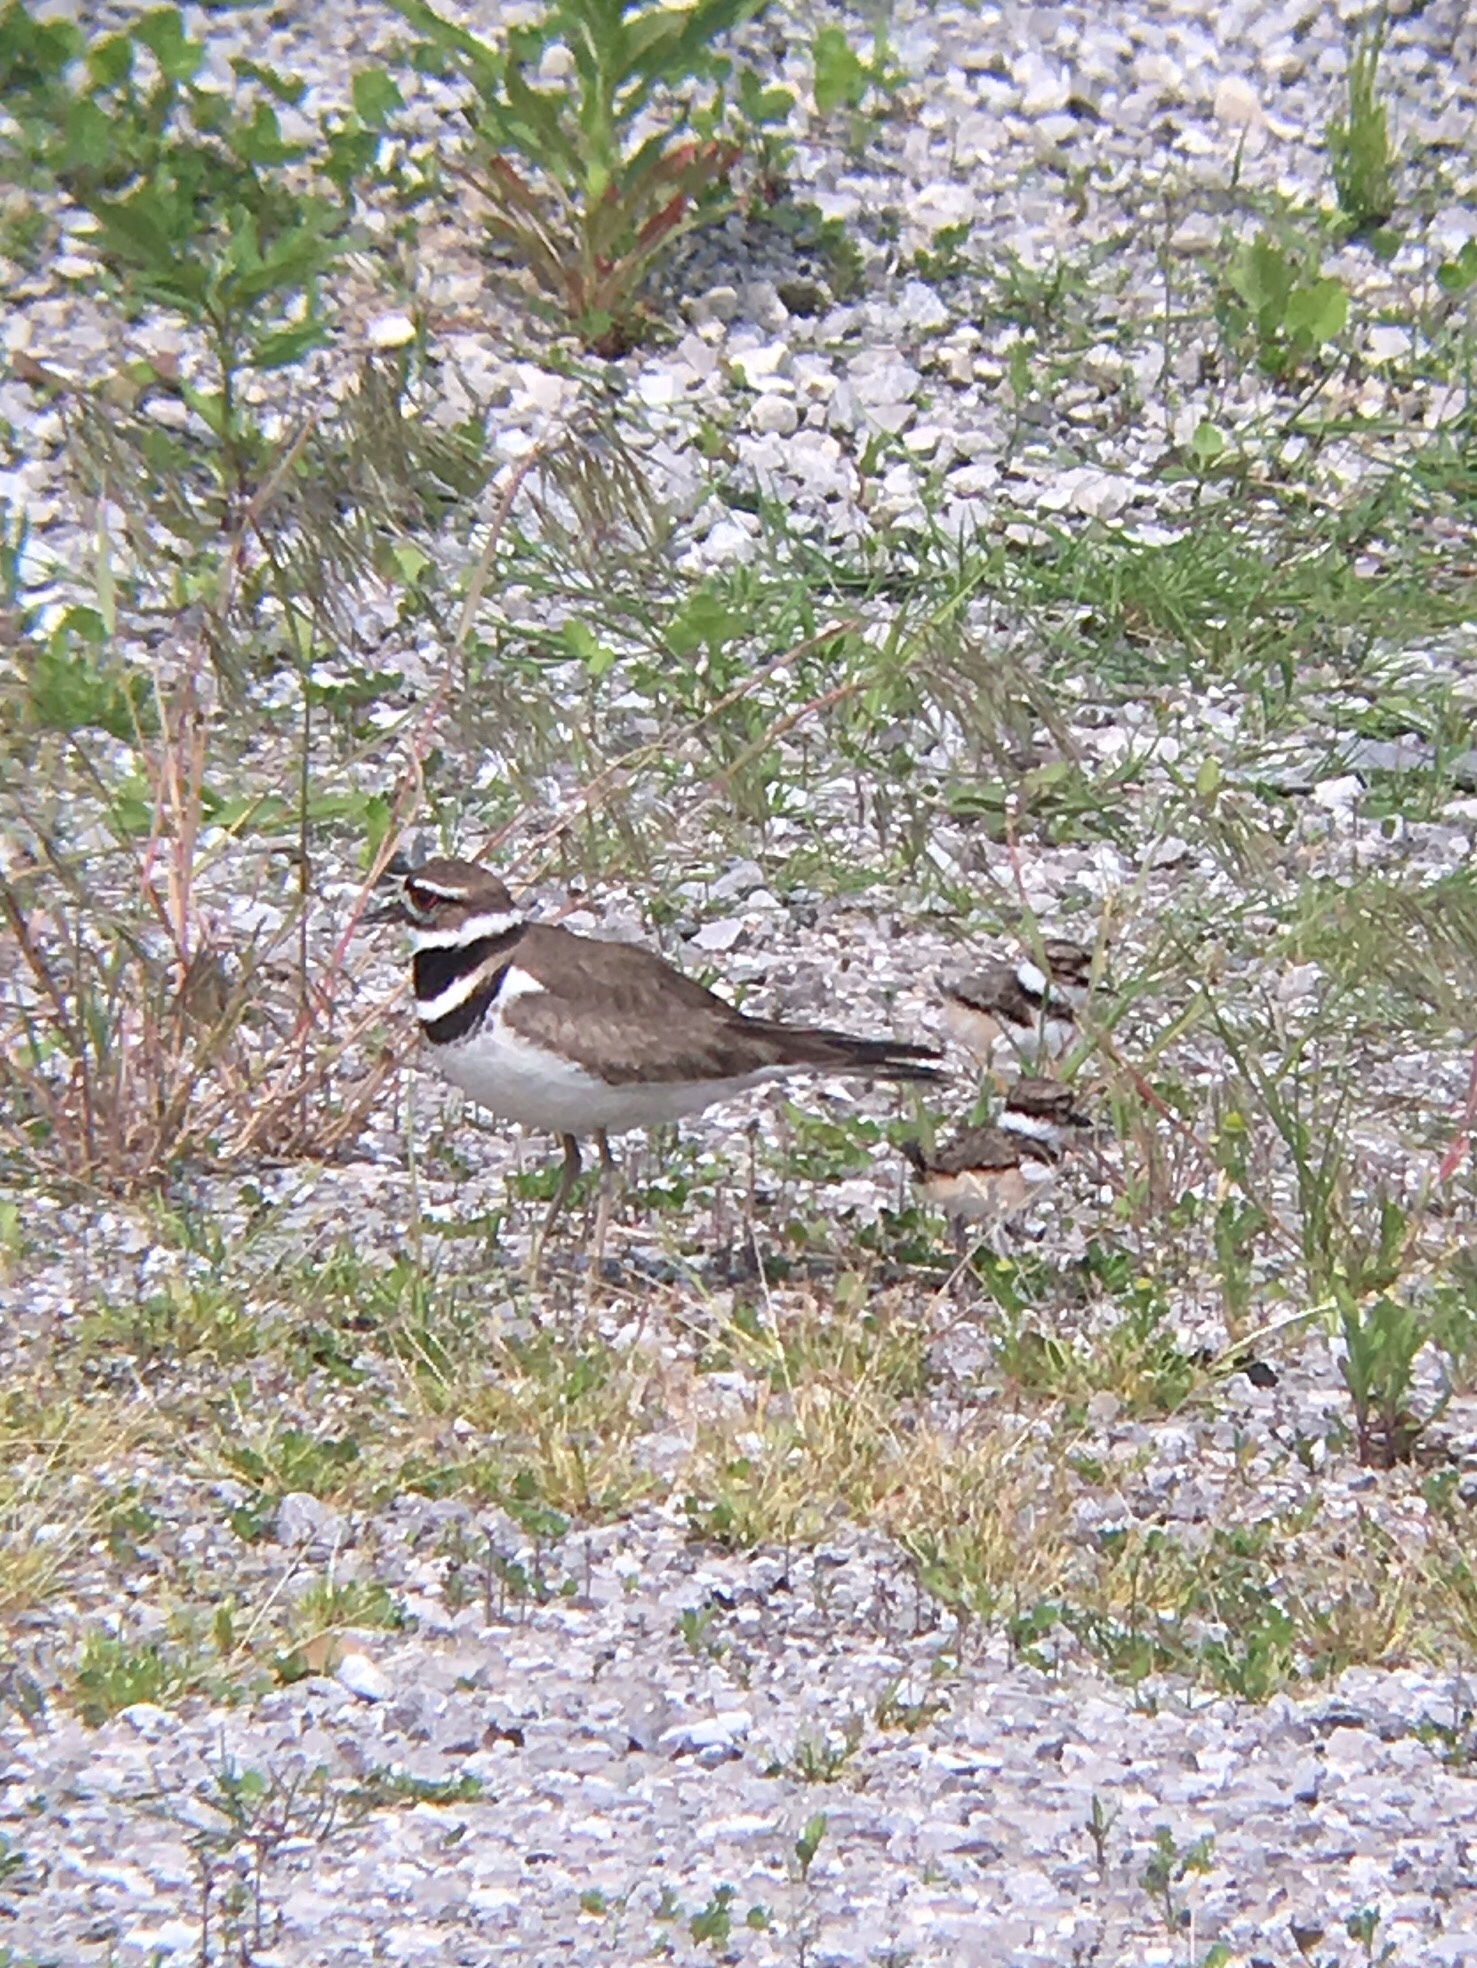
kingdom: Animalia
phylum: Chordata
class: Aves
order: Charadriiformes
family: Charadriidae
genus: Charadrius
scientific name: Charadrius vociferus
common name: Killdeer
